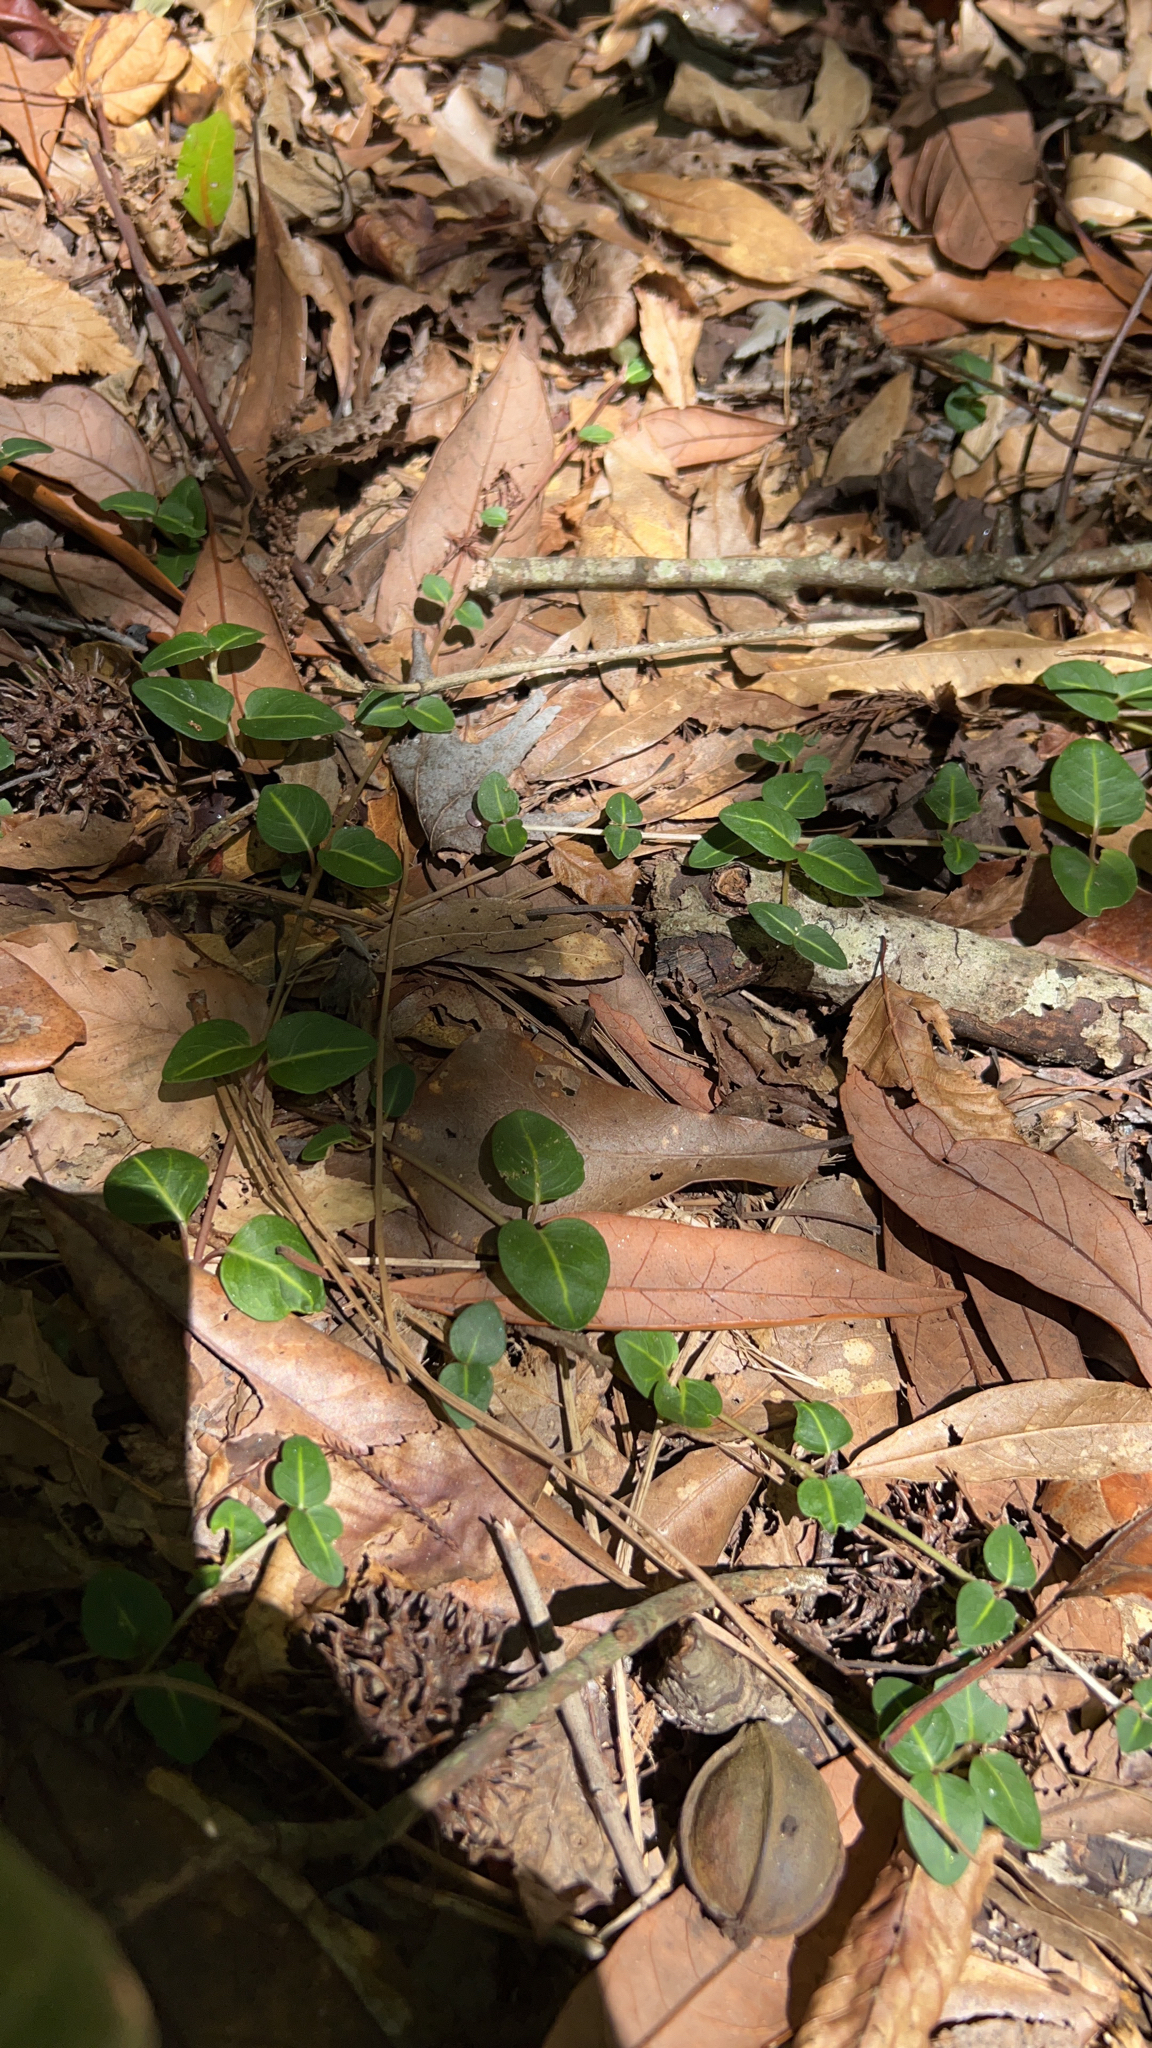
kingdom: Plantae
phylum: Tracheophyta
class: Magnoliopsida
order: Gentianales
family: Rubiaceae
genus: Mitchella
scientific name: Mitchella repens
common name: Partridge-berry
